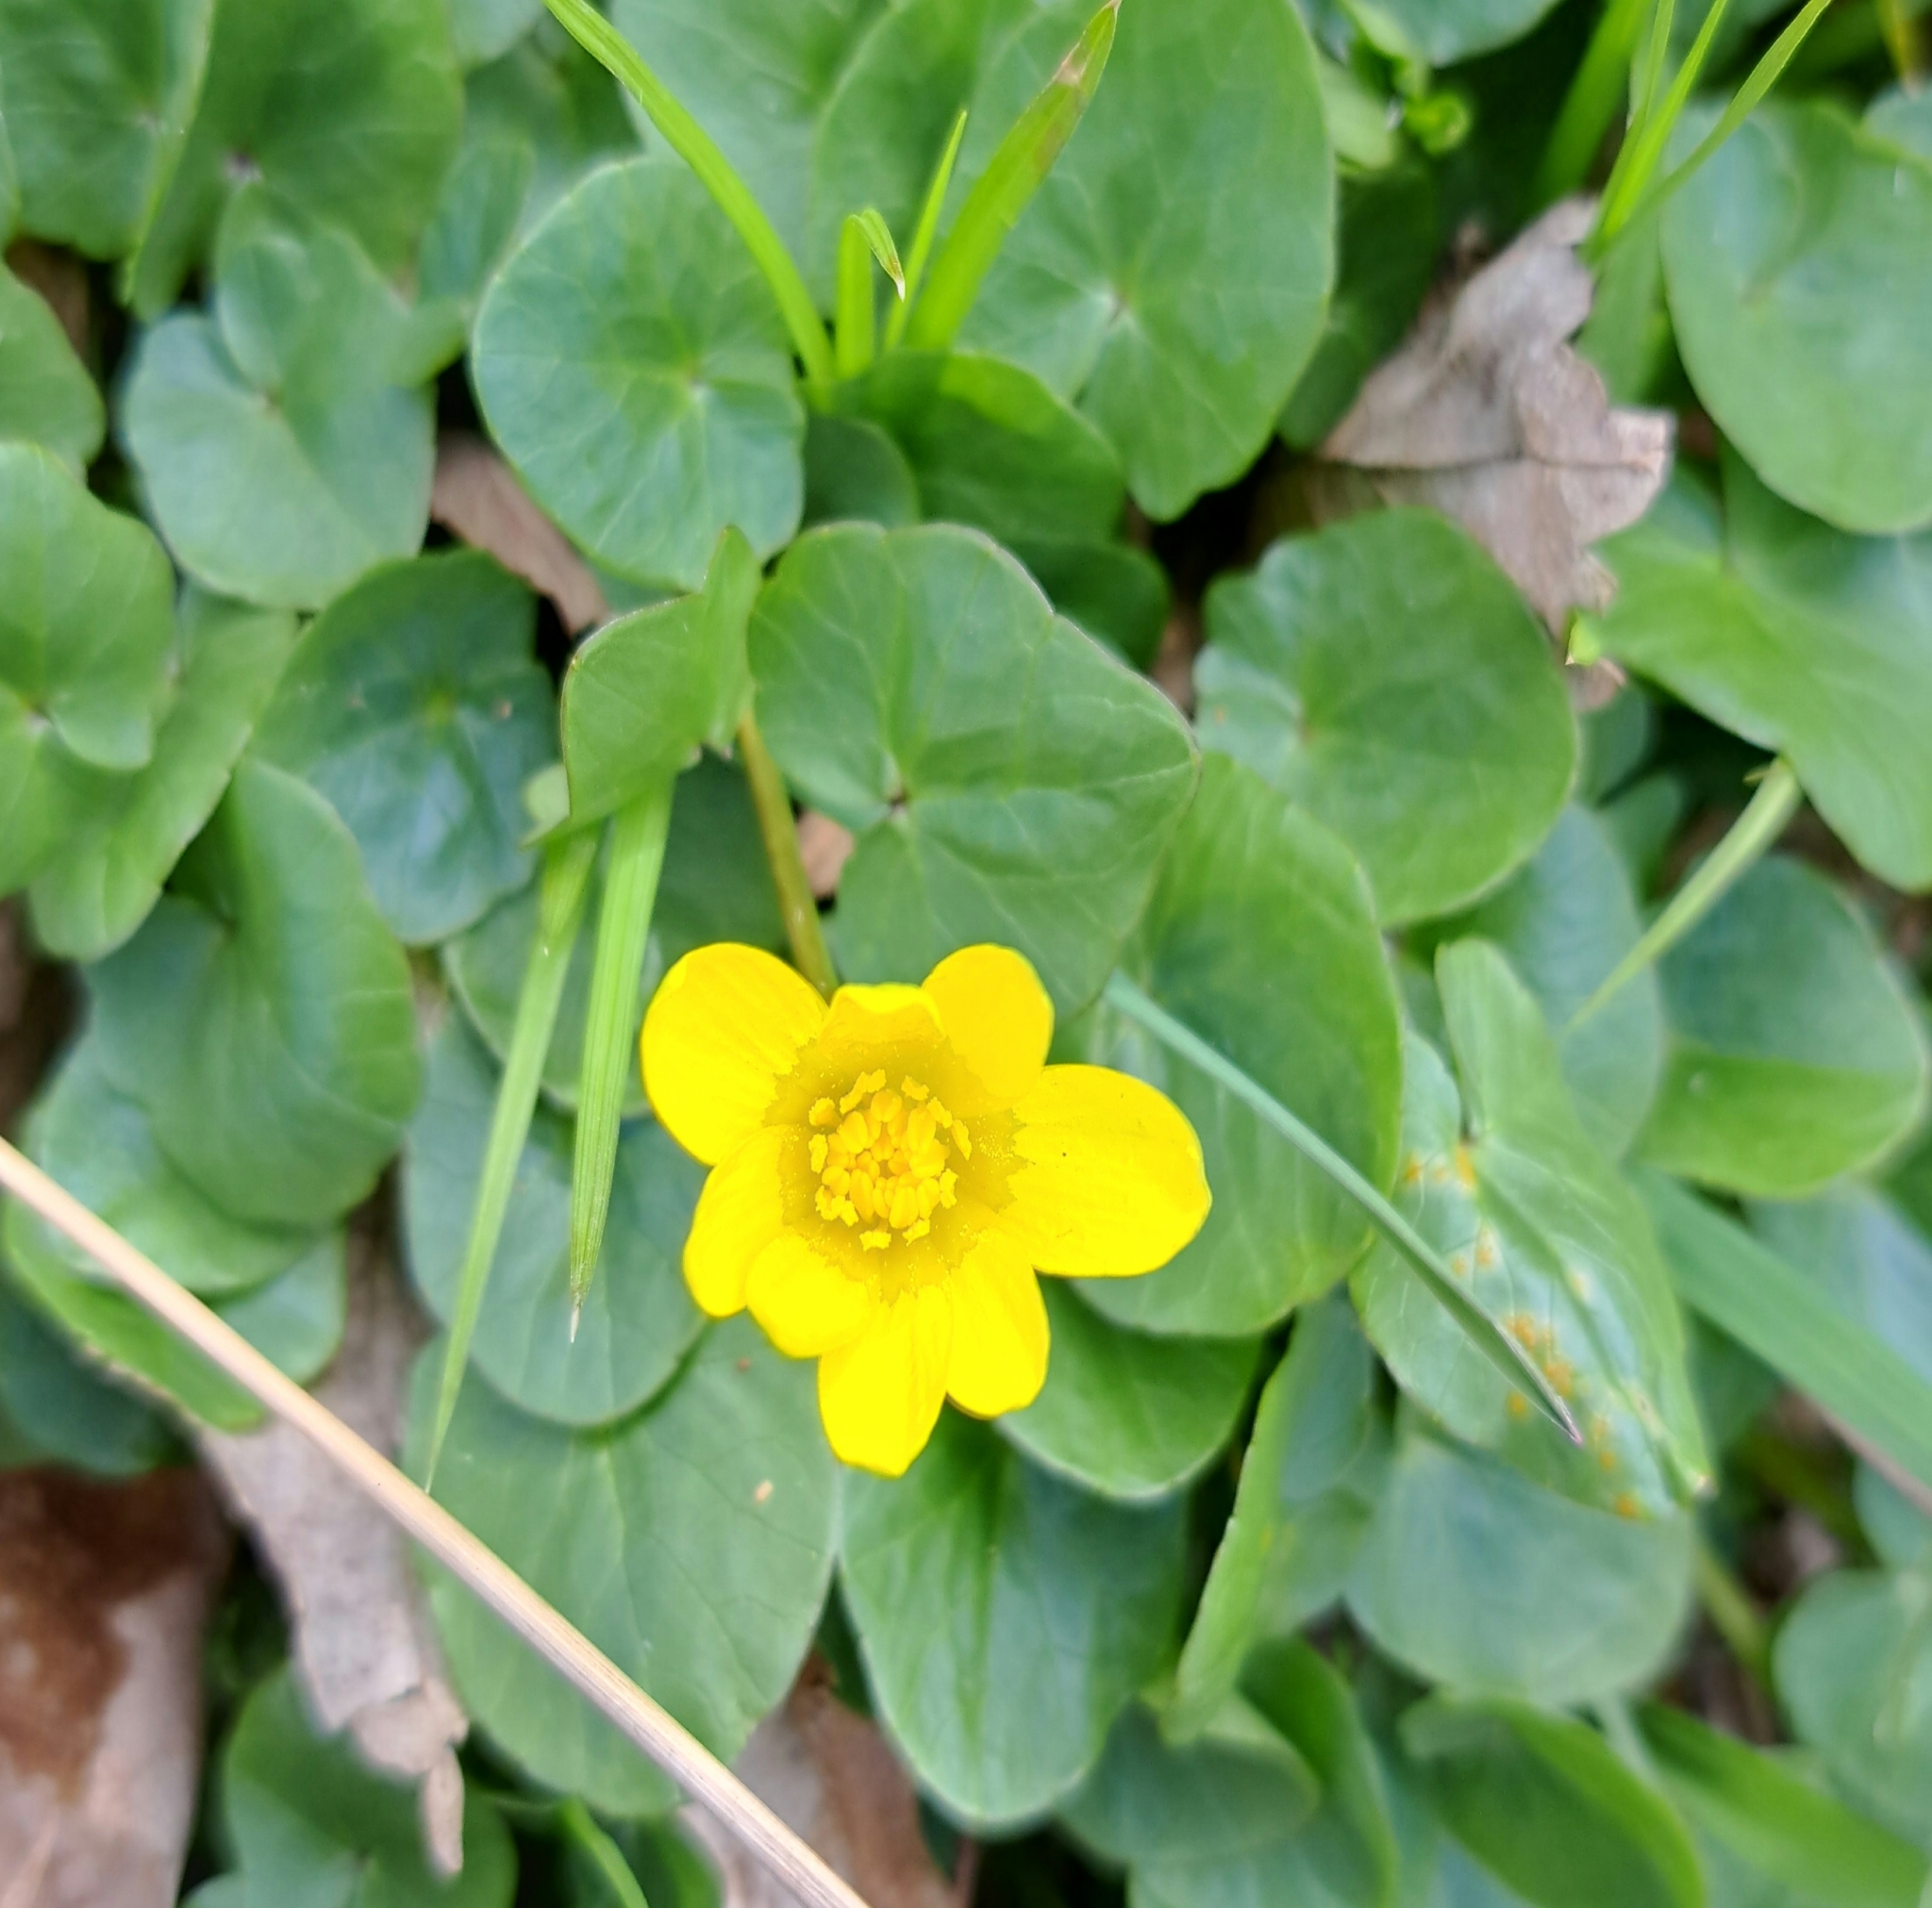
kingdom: Plantae
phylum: Tracheophyta
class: Magnoliopsida
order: Ranunculales
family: Ranunculaceae
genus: Ficaria
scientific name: Ficaria verna
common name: Lesser celandine
